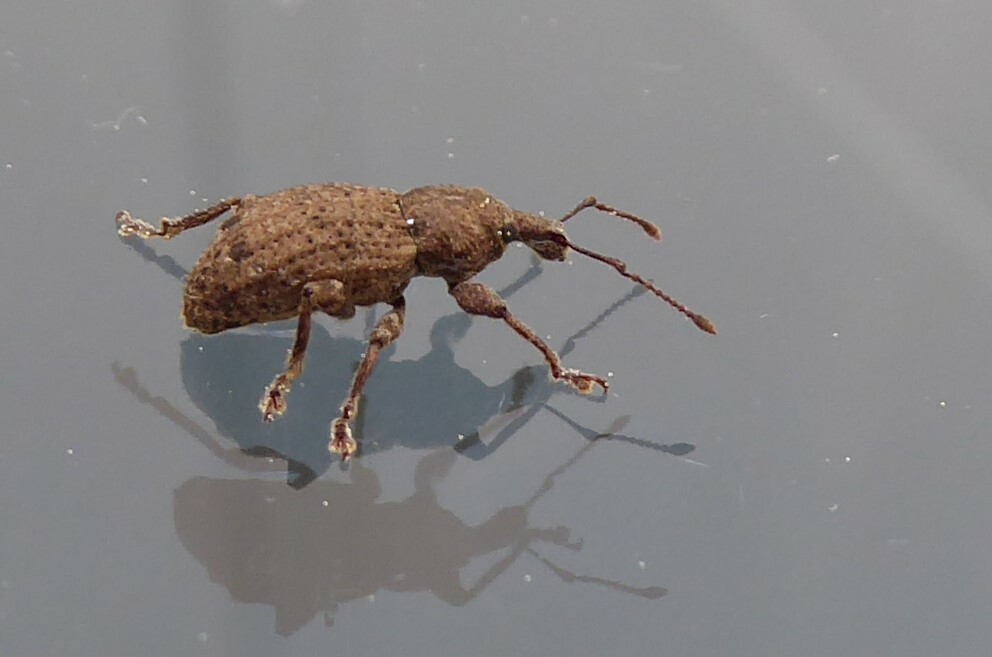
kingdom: Animalia
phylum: Arthropoda
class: Insecta
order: Coleoptera
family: Curculionidae
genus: Chalepistes
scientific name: Chalepistes rubidus
